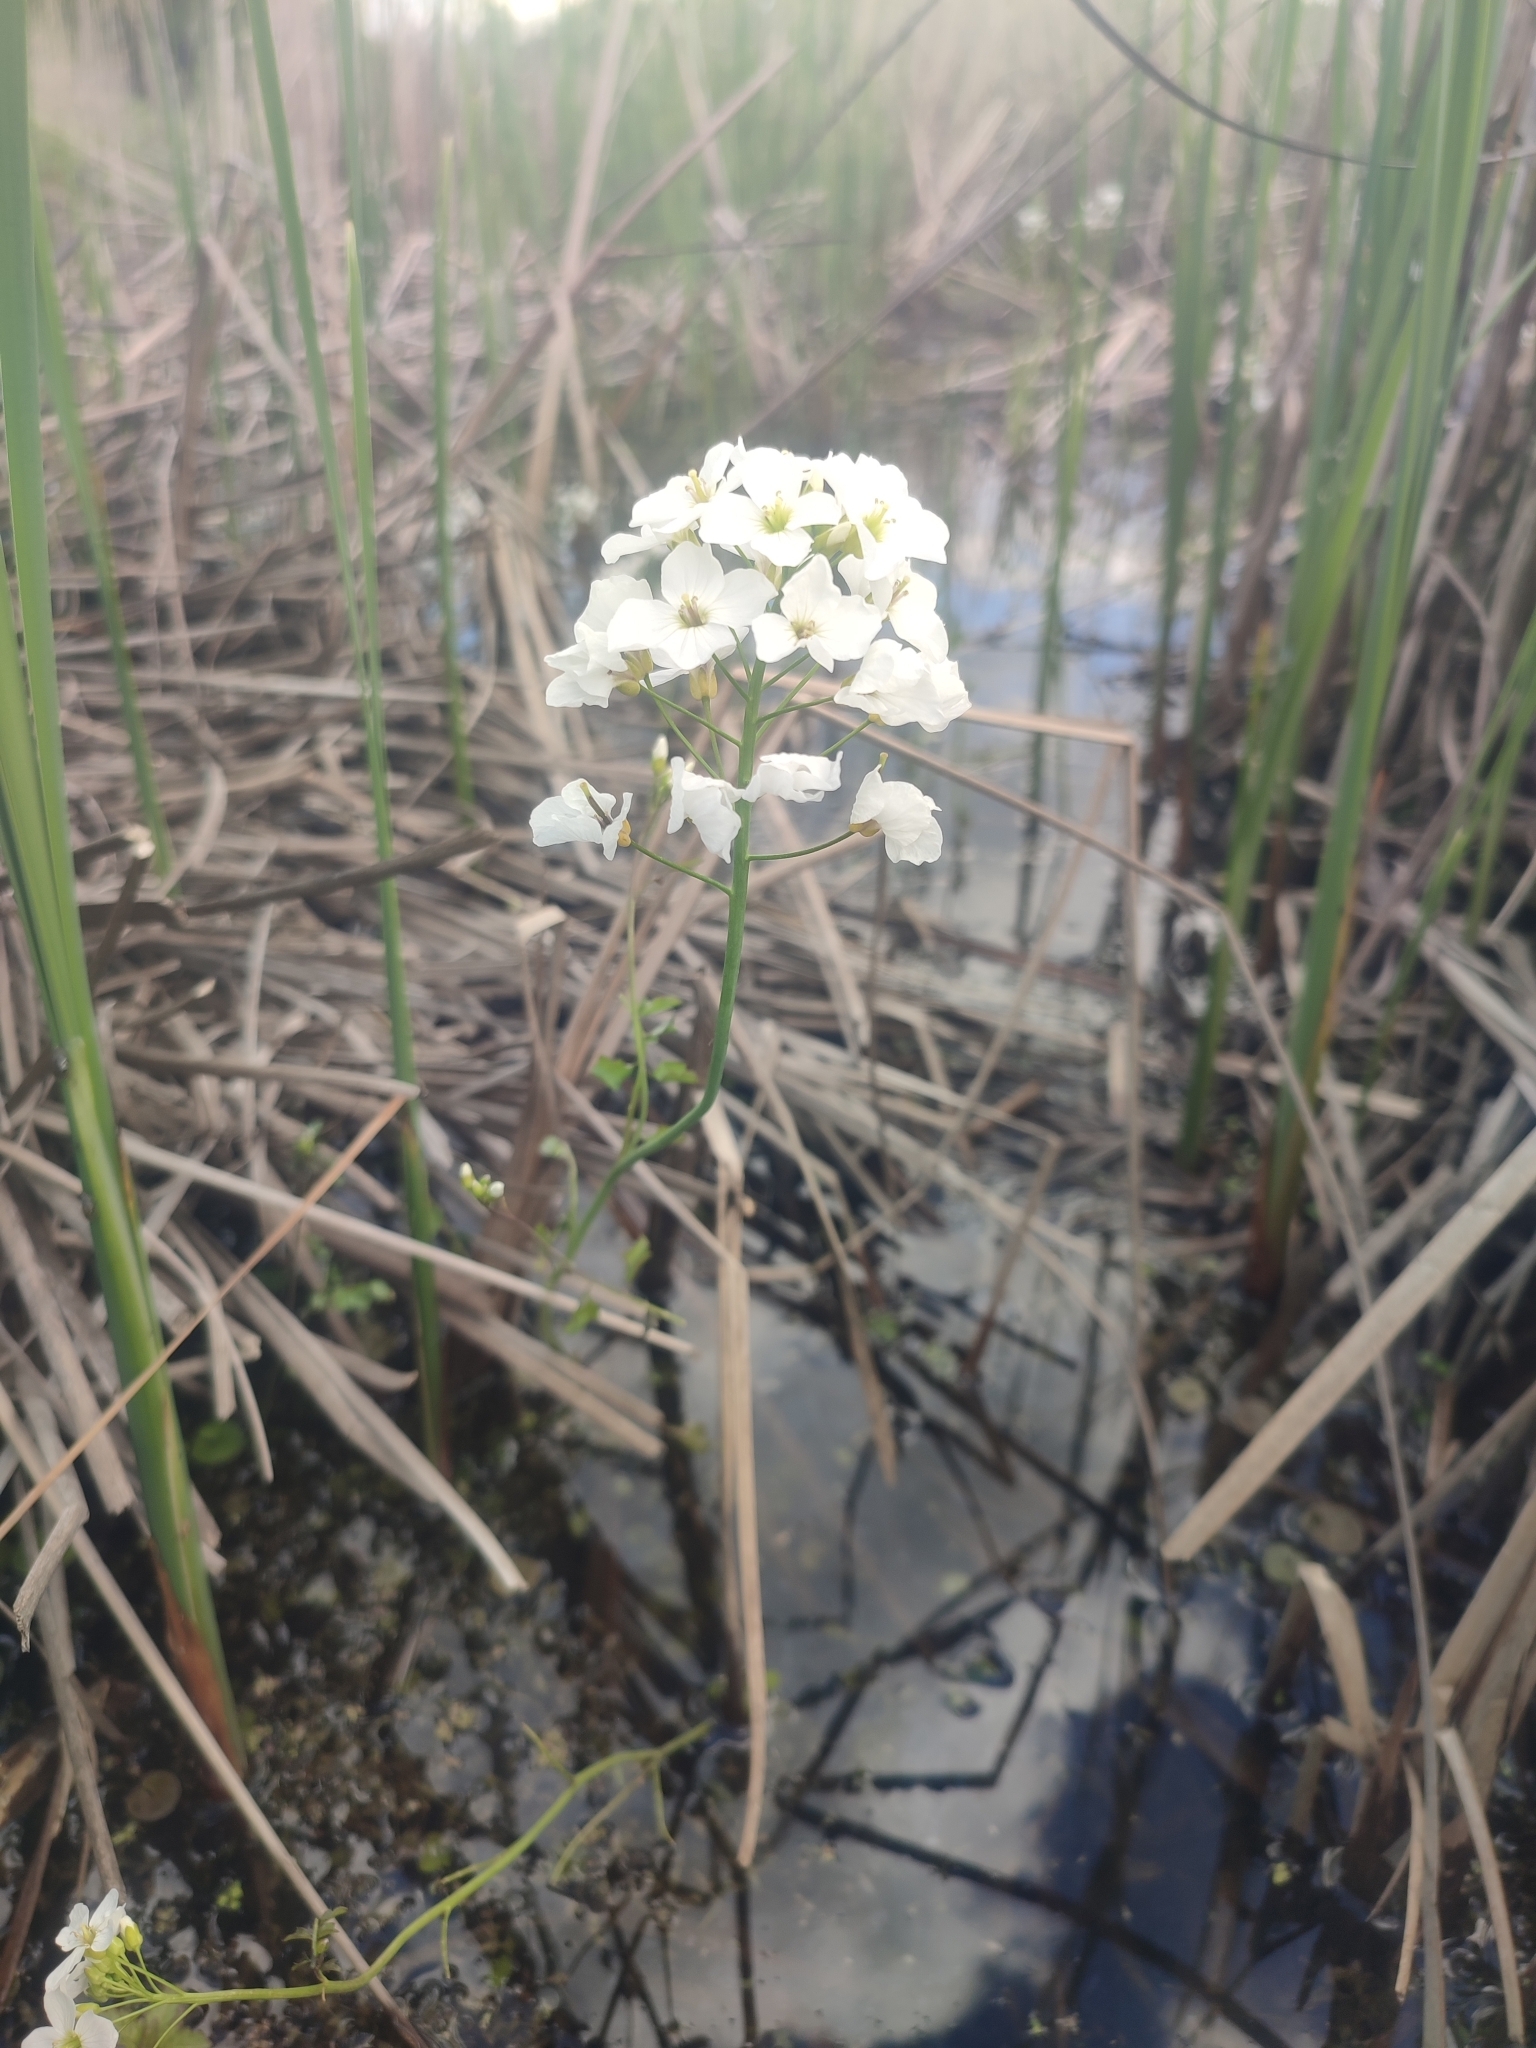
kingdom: Plantae
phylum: Tracheophyta
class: Magnoliopsida
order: Brassicales
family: Brassicaceae
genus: Cardamine
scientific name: Cardamine dentata
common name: Toothed bittercress
